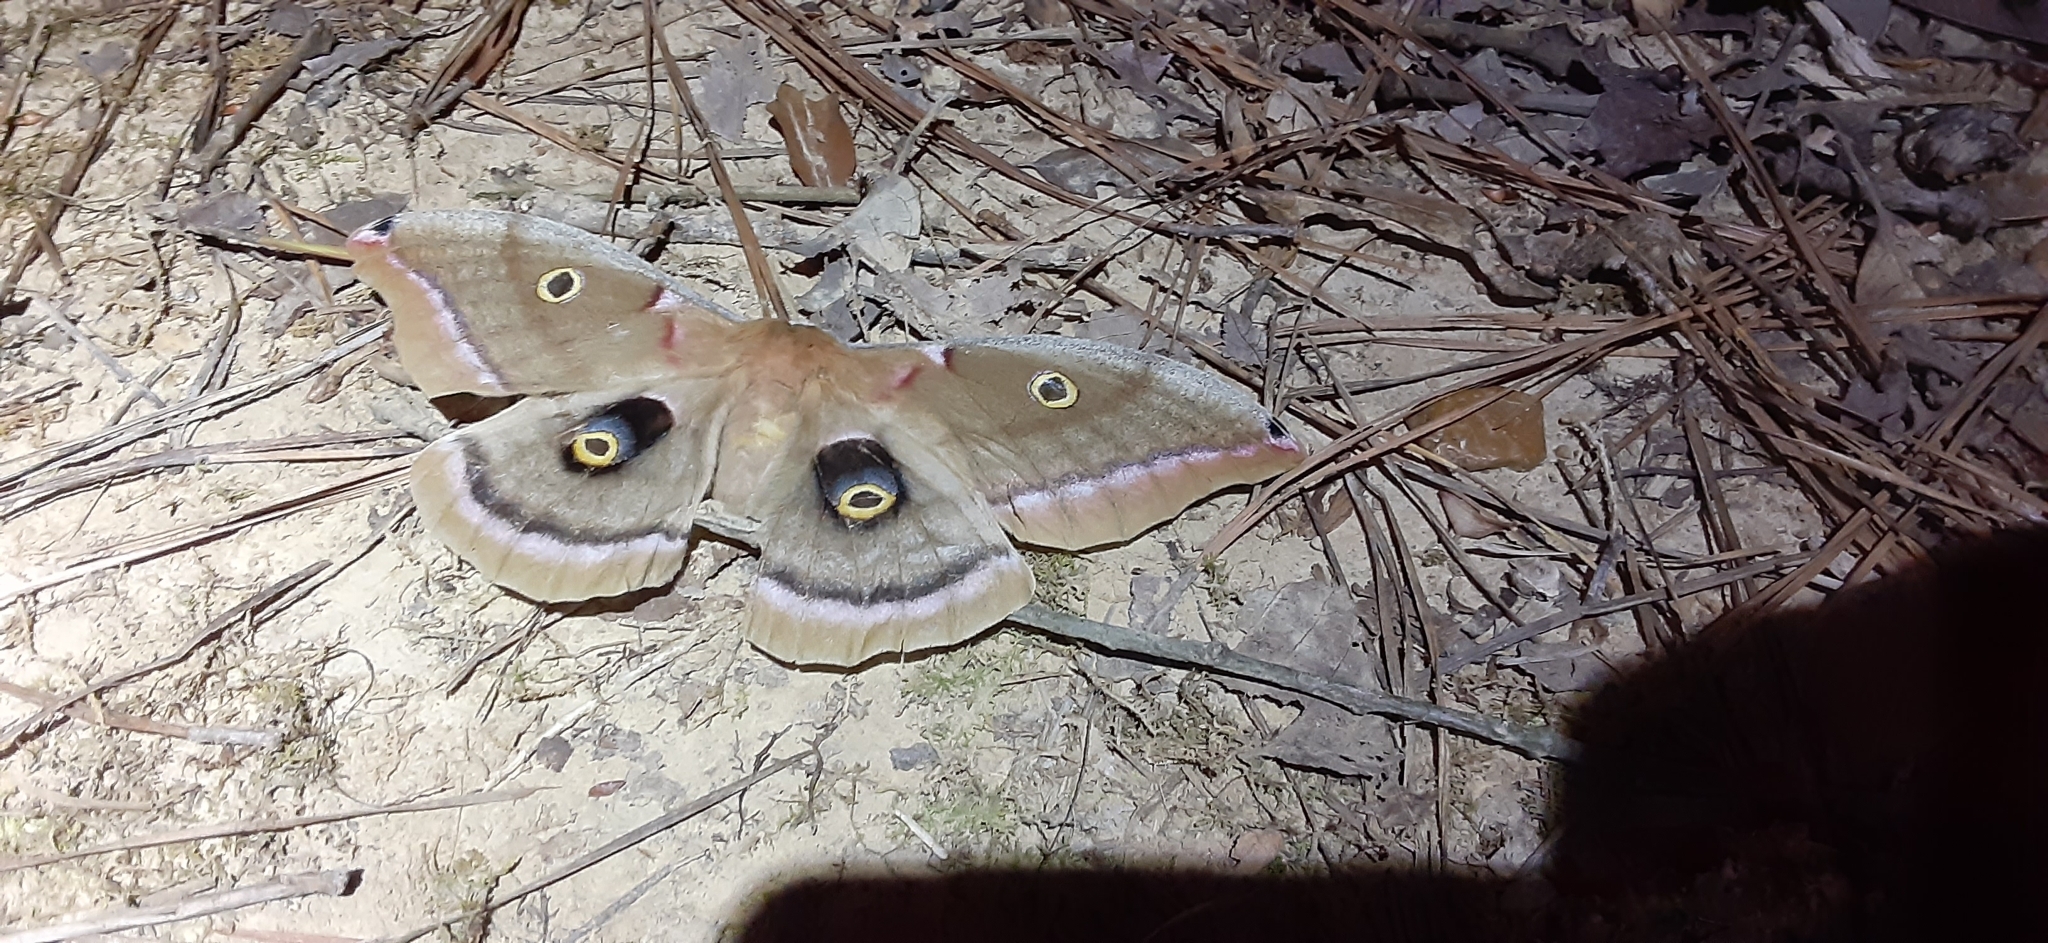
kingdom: Animalia
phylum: Arthropoda
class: Insecta
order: Lepidoptera
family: Saturniidae
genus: Antheraea
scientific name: Antheraea polyphemus
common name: Polyphemus moth
